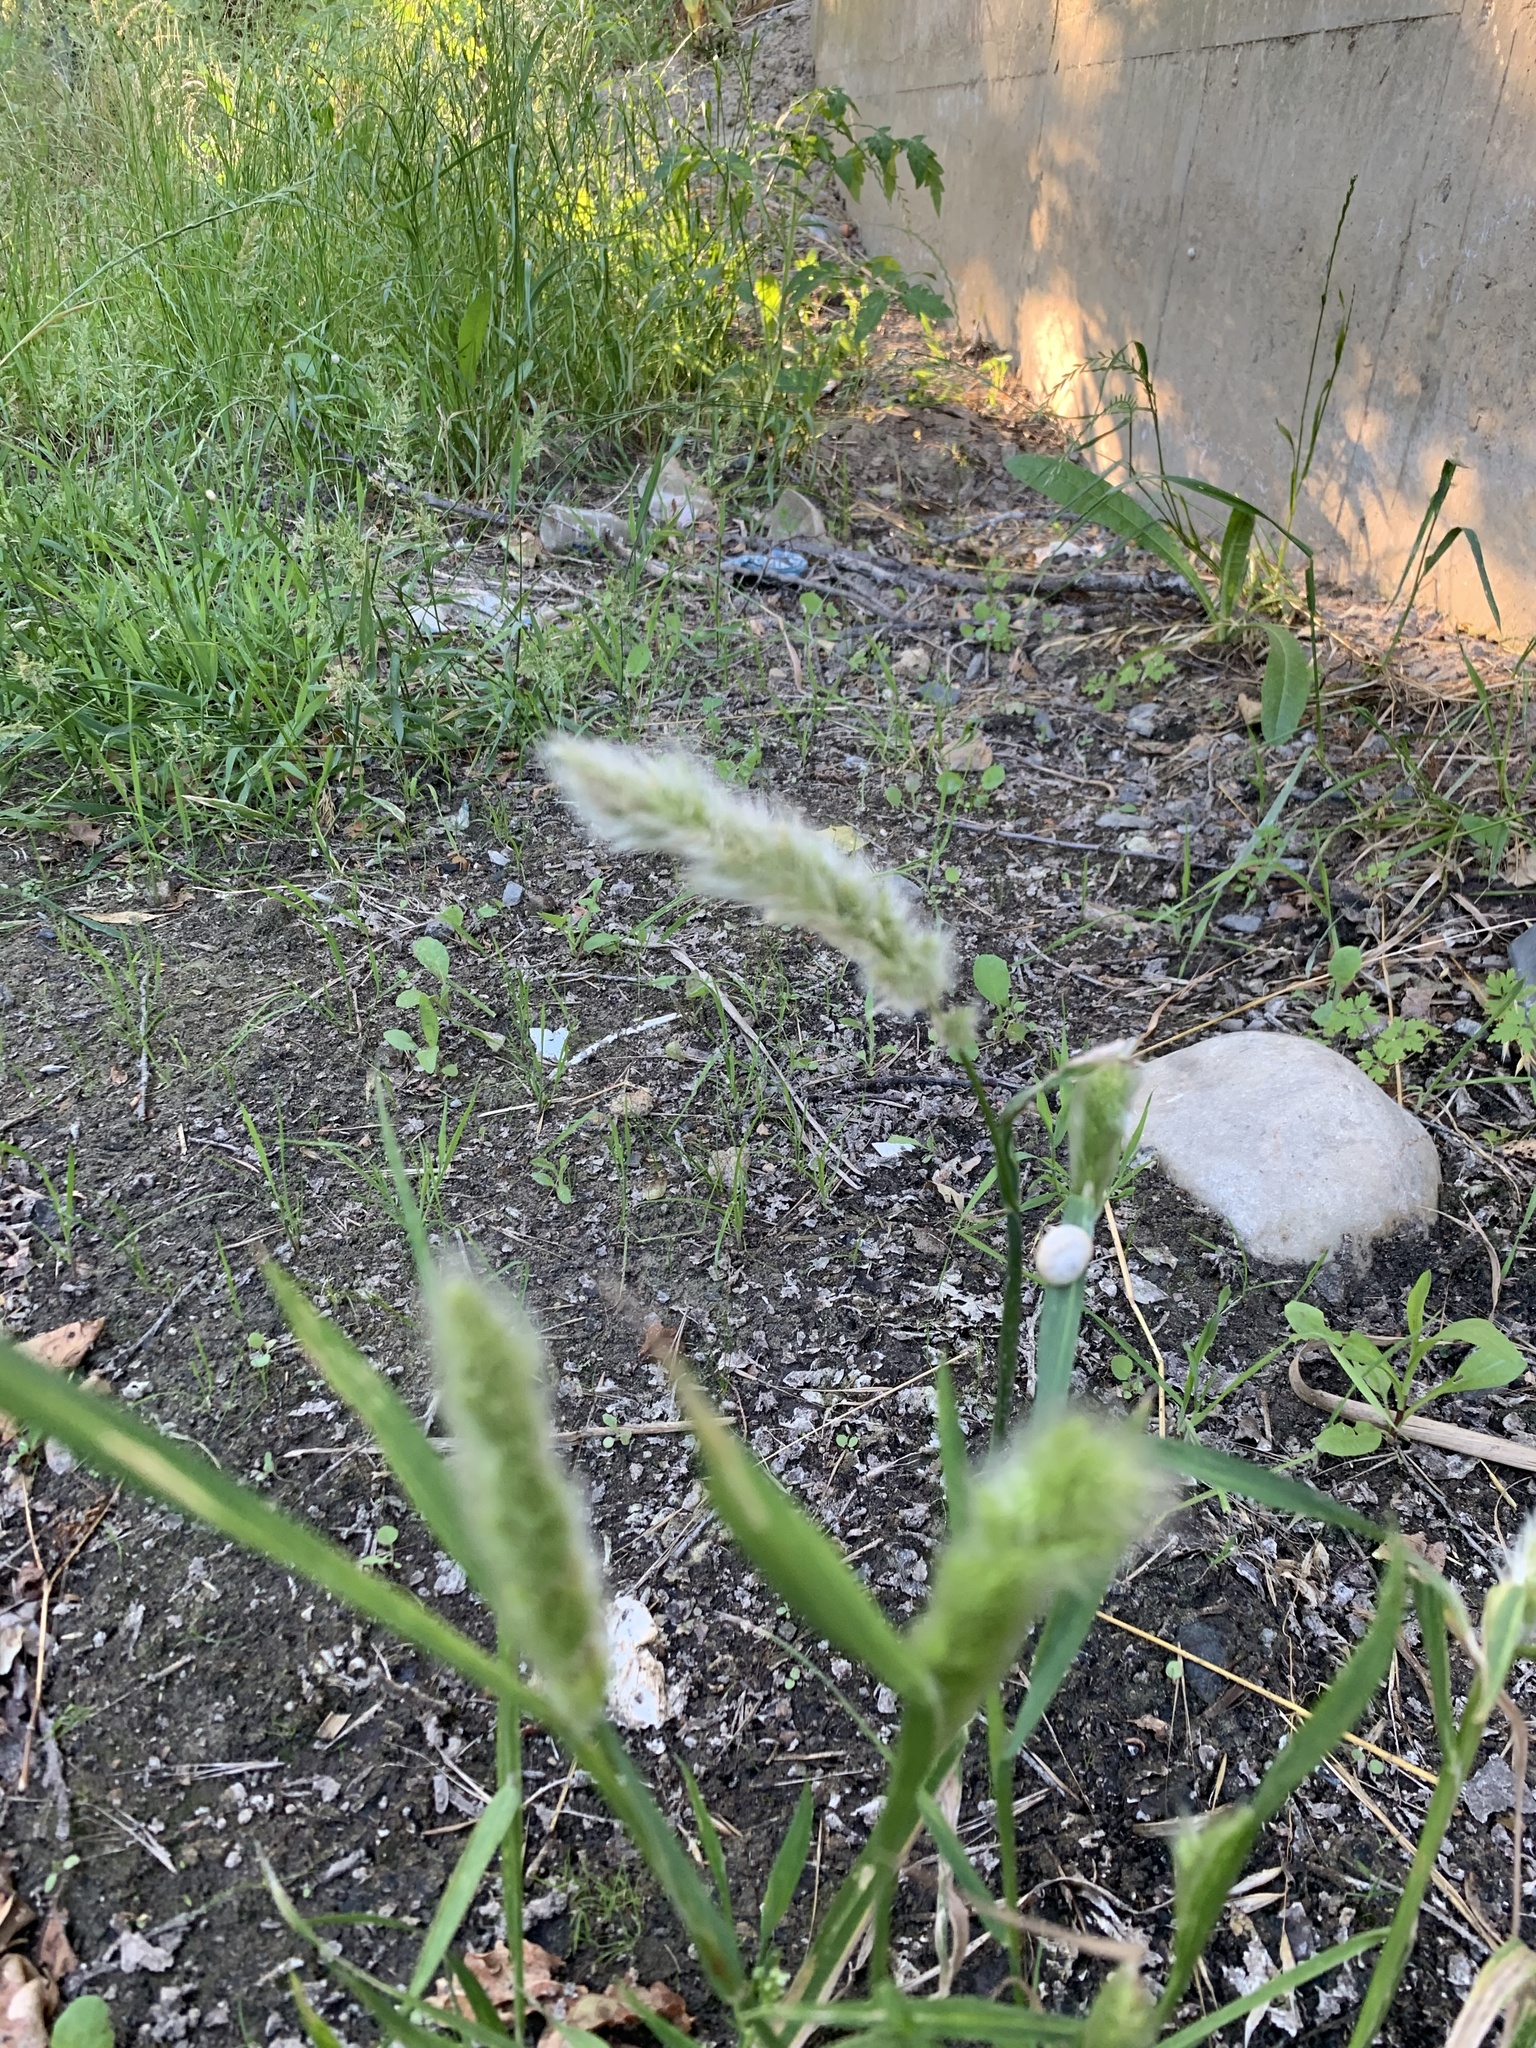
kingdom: Plantae
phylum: Tracheophyta
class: Liliopsida
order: Poales
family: Poaceae
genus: Polypogon
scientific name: Polypogon monspeliensis
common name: Annual rabbitsfoot grass
